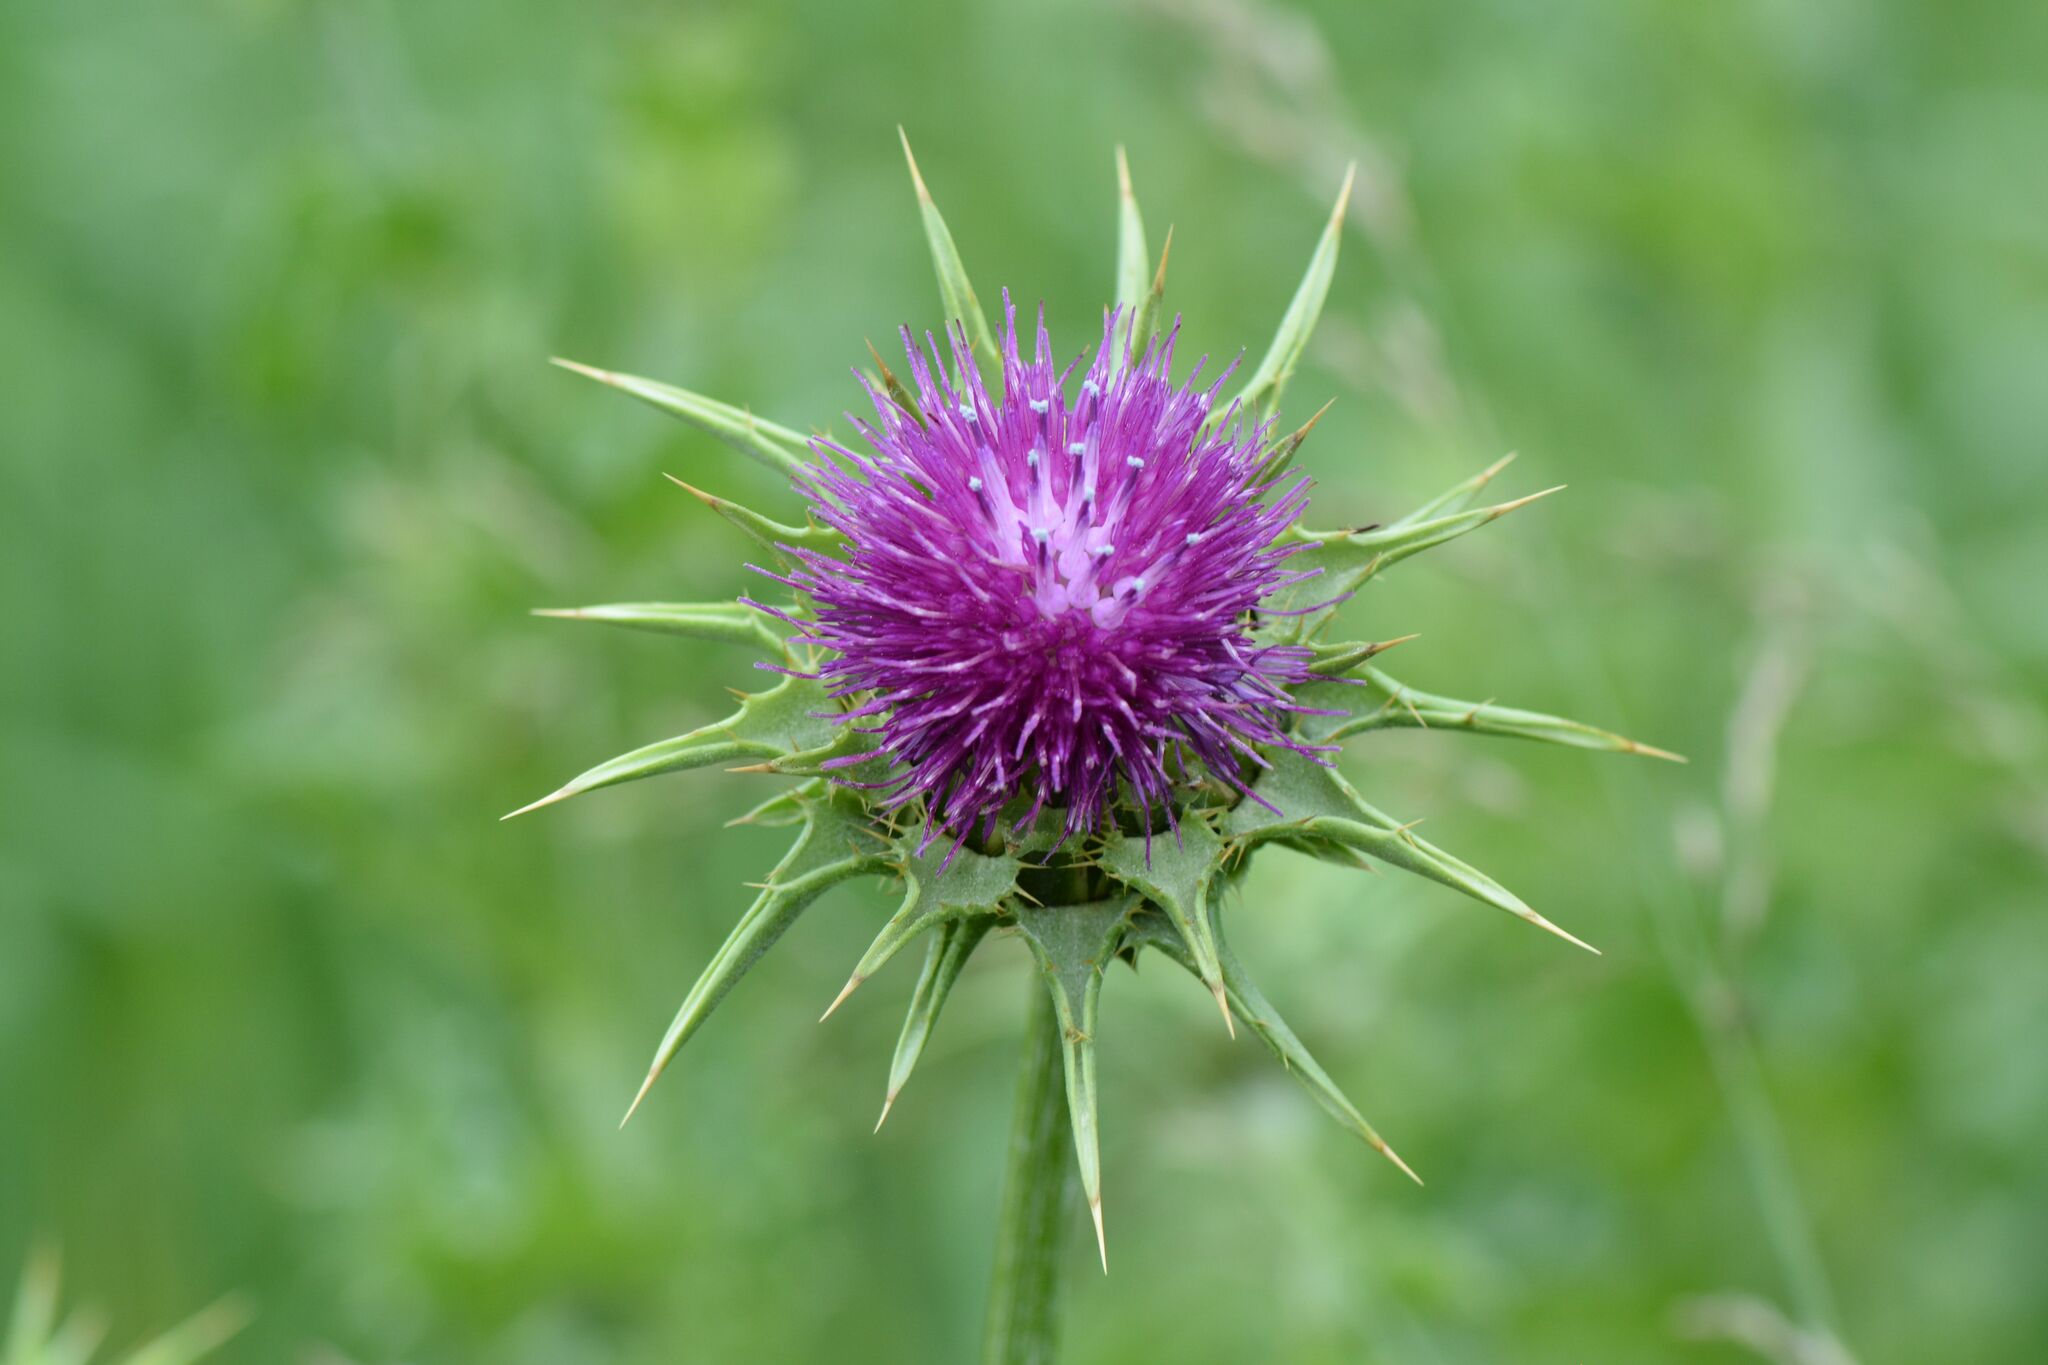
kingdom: Plantae
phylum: Tracheophyta
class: Magnoliopsida
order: Asterales
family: Asteraceae
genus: Silybum
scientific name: Silybum marianum
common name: Milk thistle
